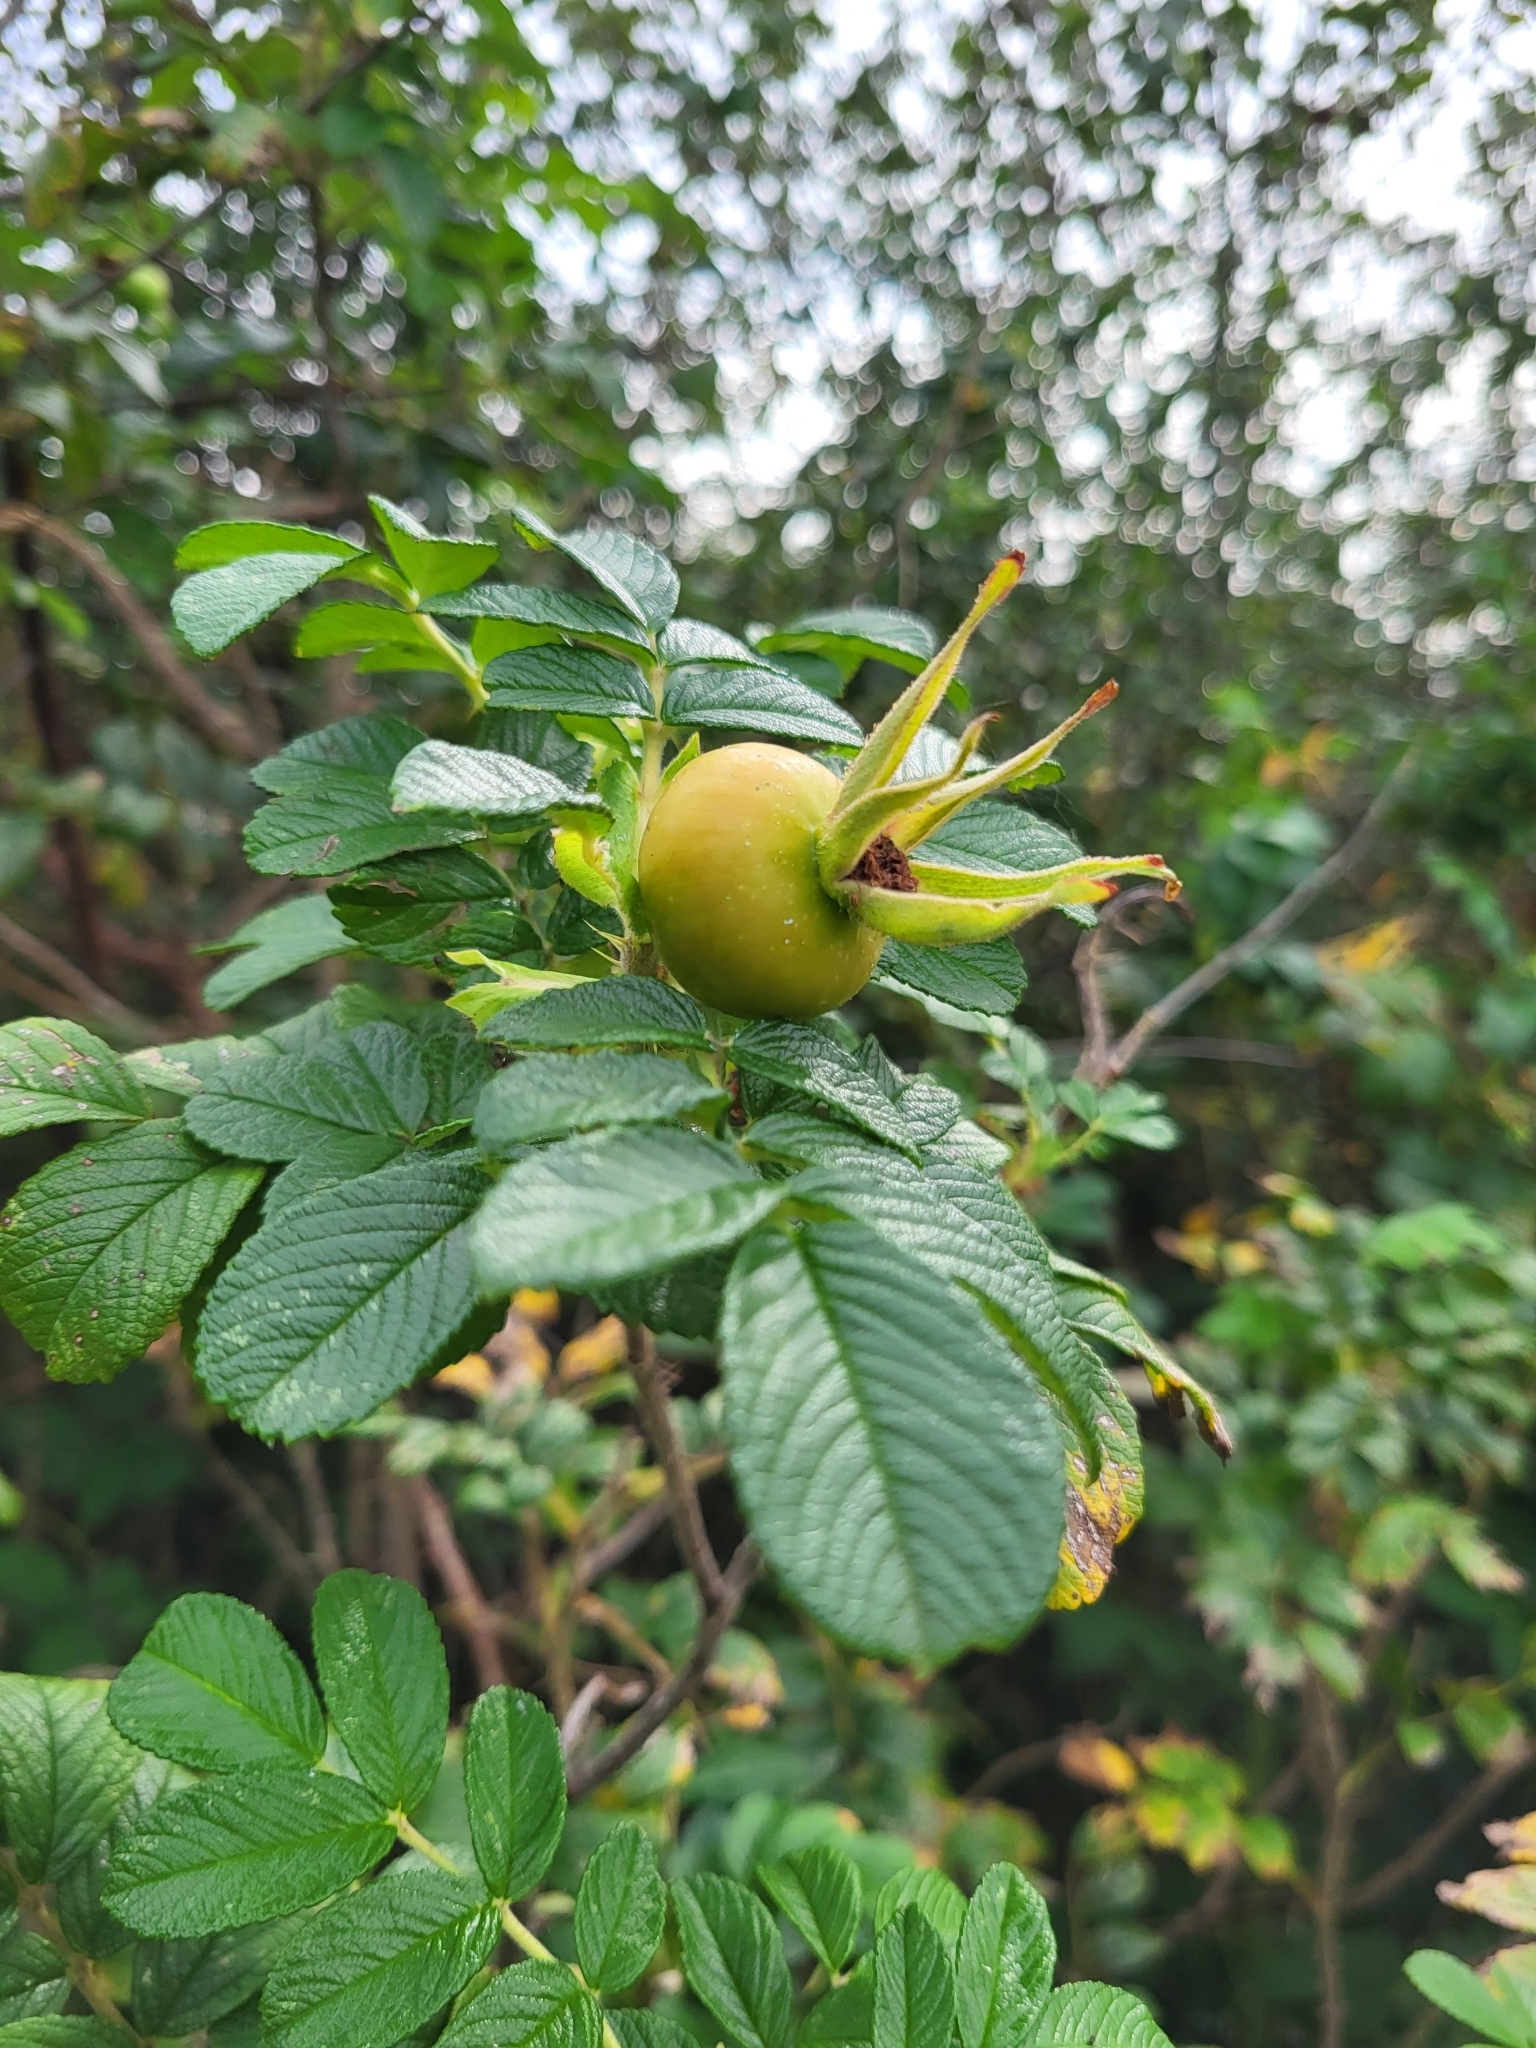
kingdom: Plantae
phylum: Tracheophyta
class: Magnoliopsida
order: Rosales
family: Rosaceae
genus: Rosa
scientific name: Rosa rugosa
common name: Japanese rose
